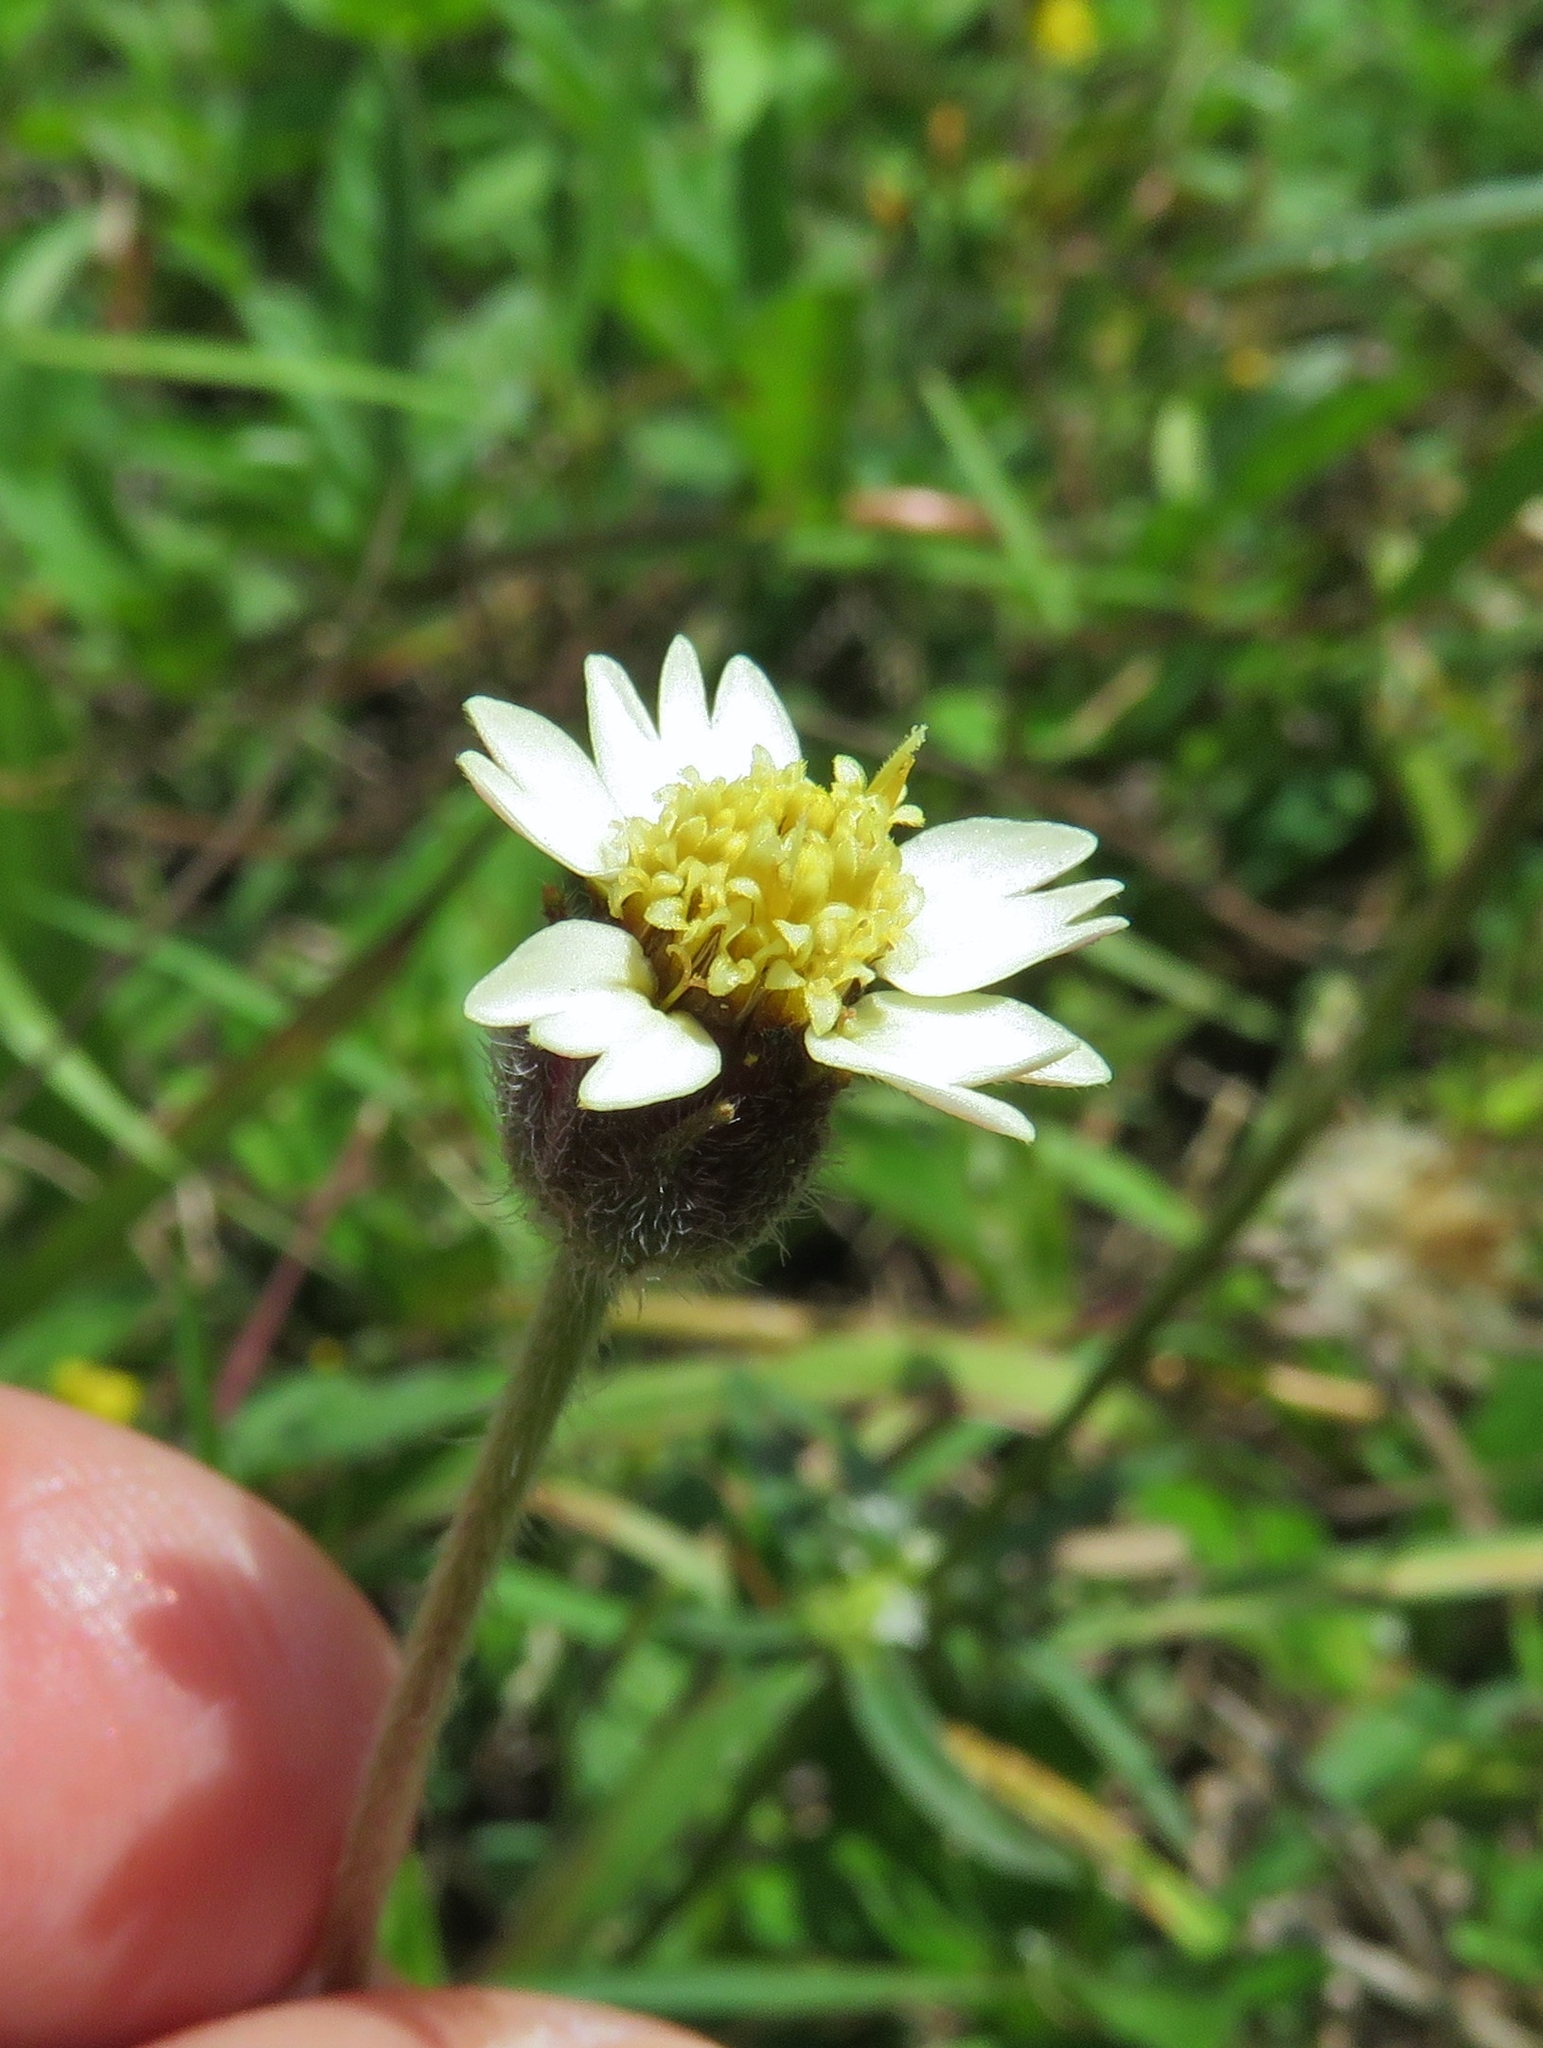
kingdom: Plantae
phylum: Tracheophyta
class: Magnoliopsida
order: Asterales
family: Asteraceae
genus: Tridax
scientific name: Tridax procumbens
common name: Coatbuttons
